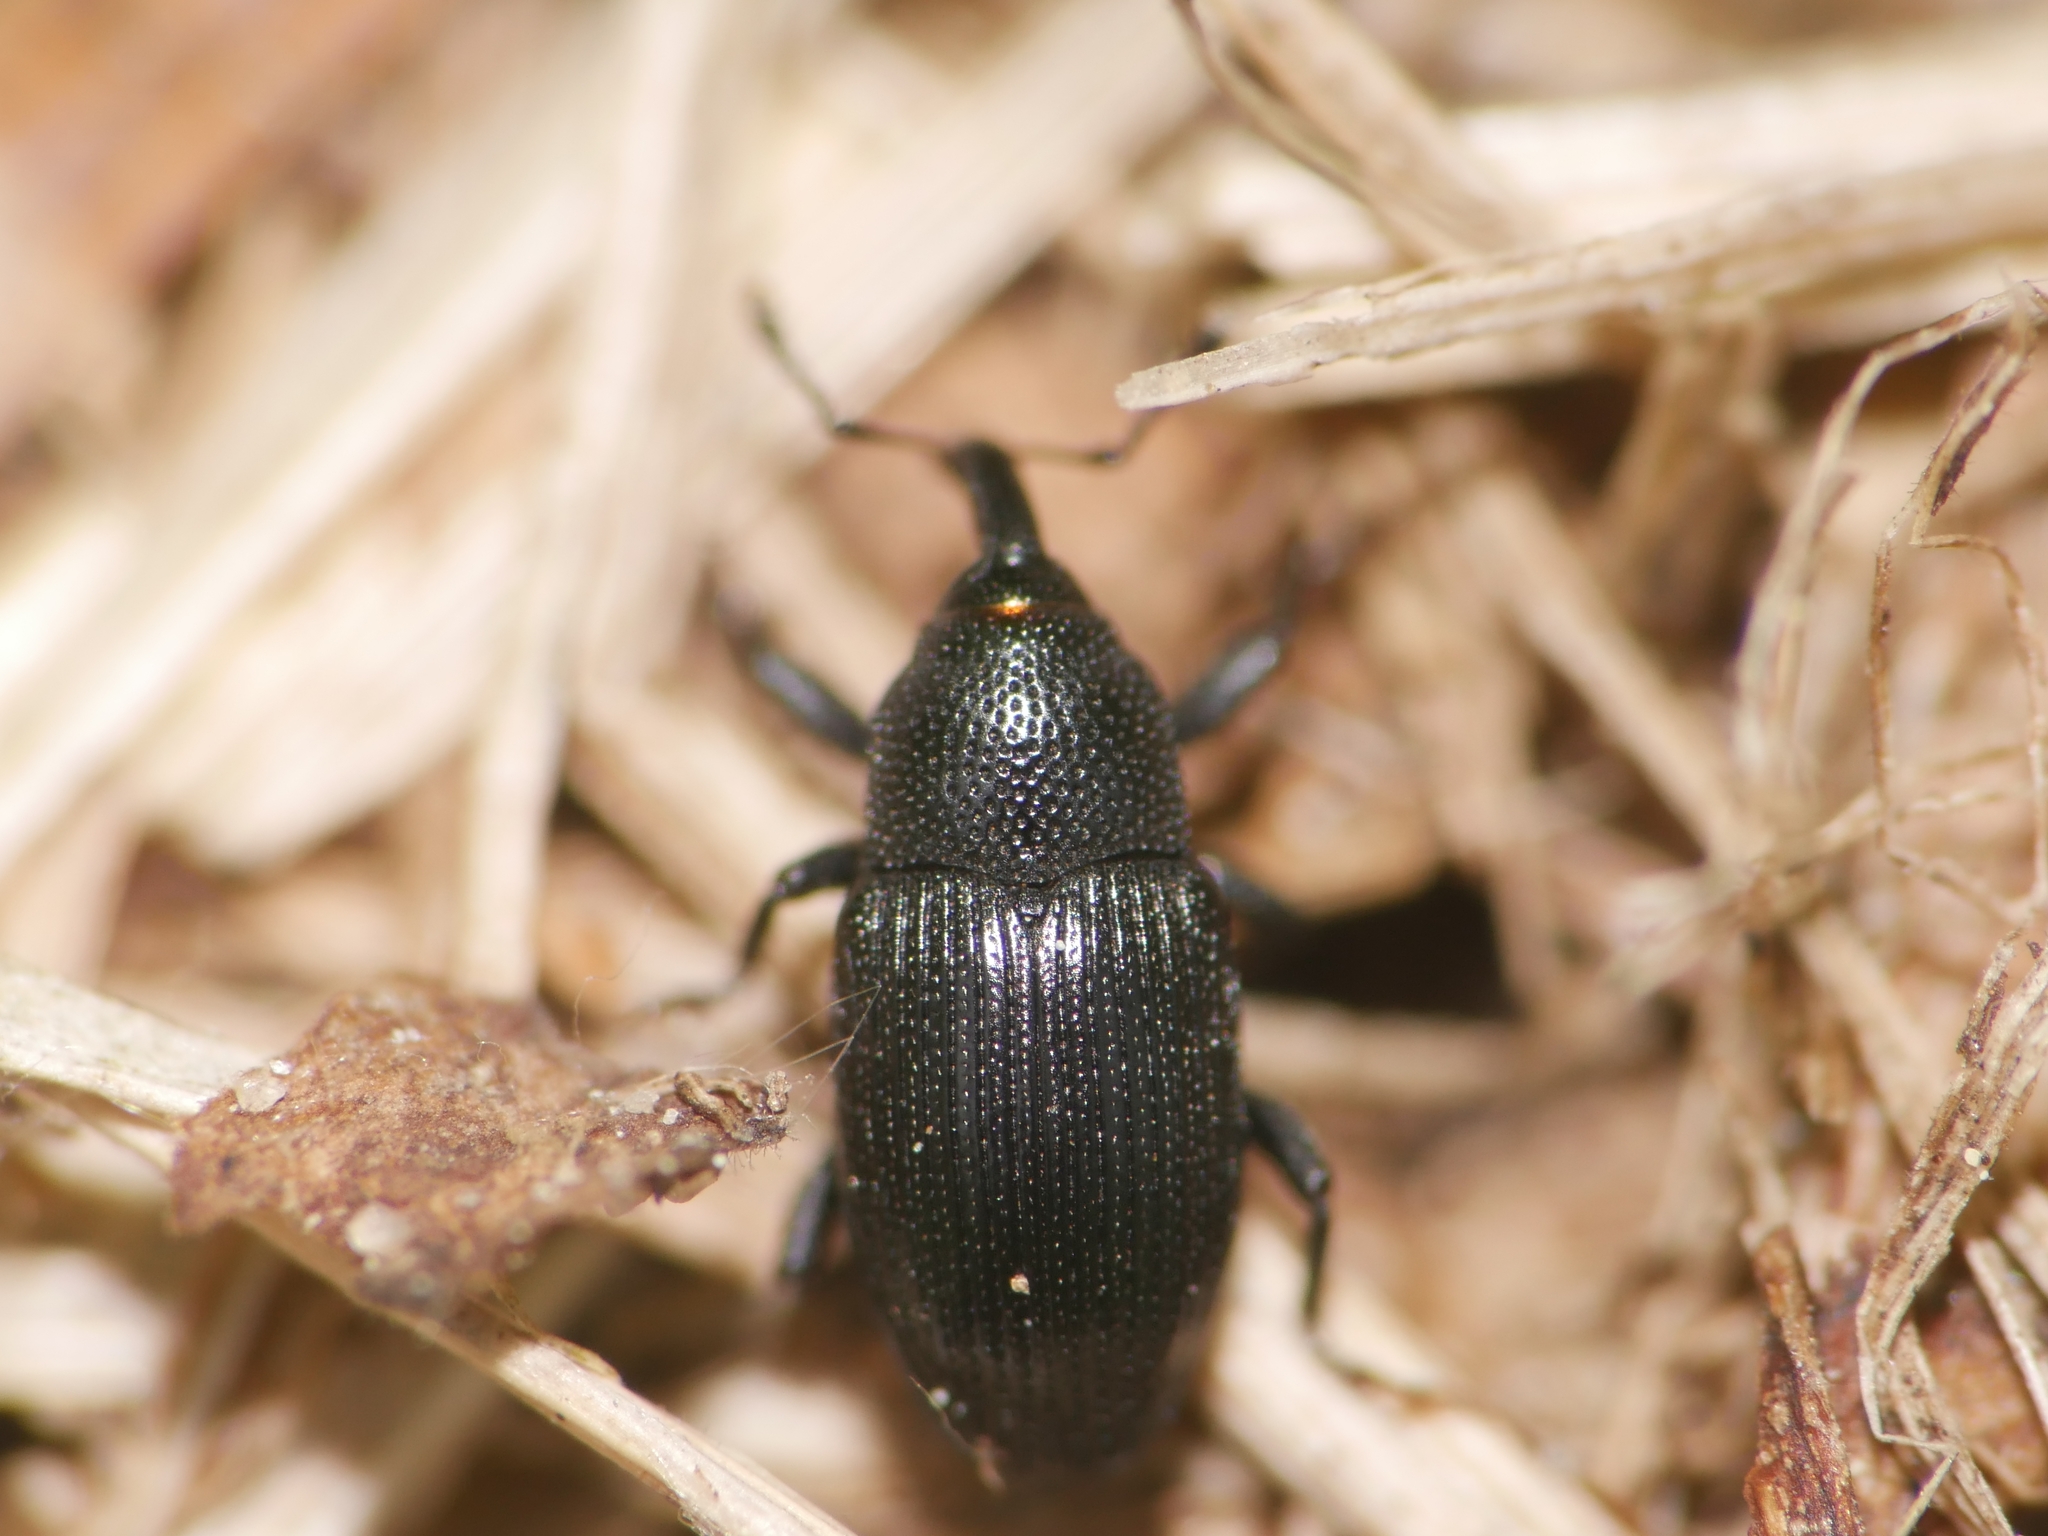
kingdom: Animalia
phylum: Arthropoda
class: Insecta
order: Coleoptera
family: Curculionidae
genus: Baris
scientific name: Baris artemisiae
